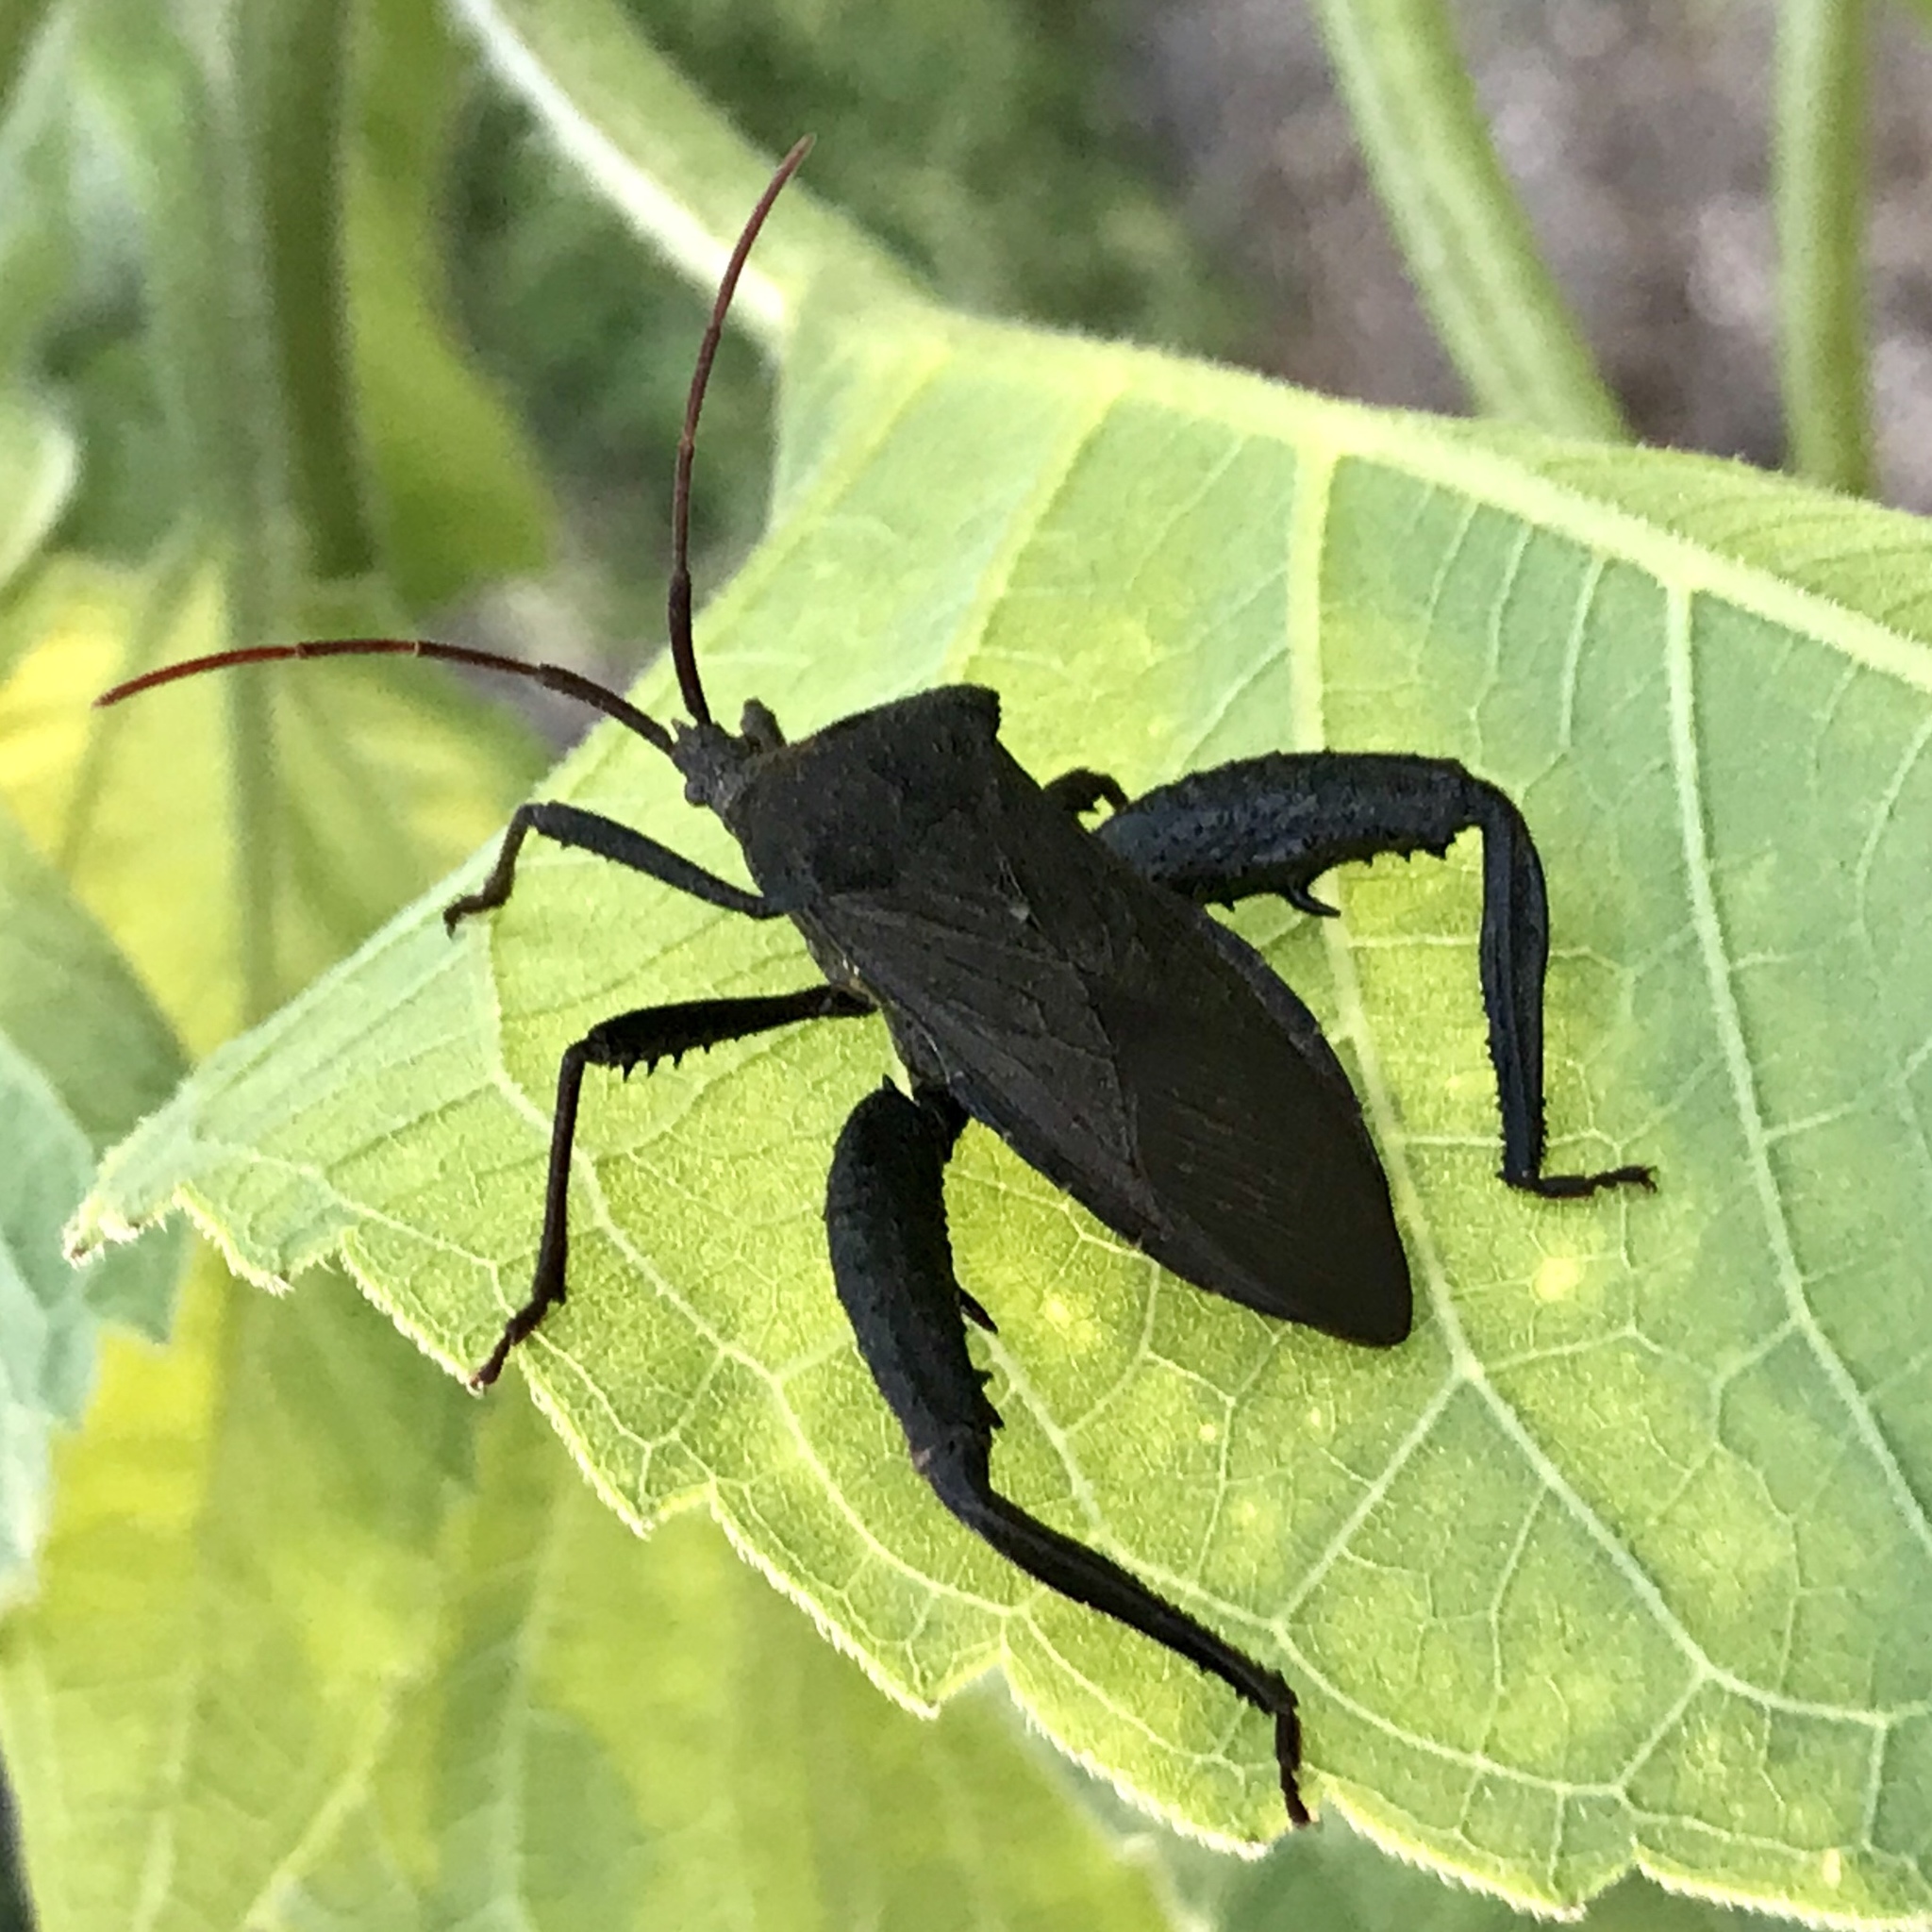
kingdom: Animalia
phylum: Arthropoda
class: Insecta
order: Hemiptera
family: Coreidae
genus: Acanthocephala
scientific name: Acanthocephala femorata
